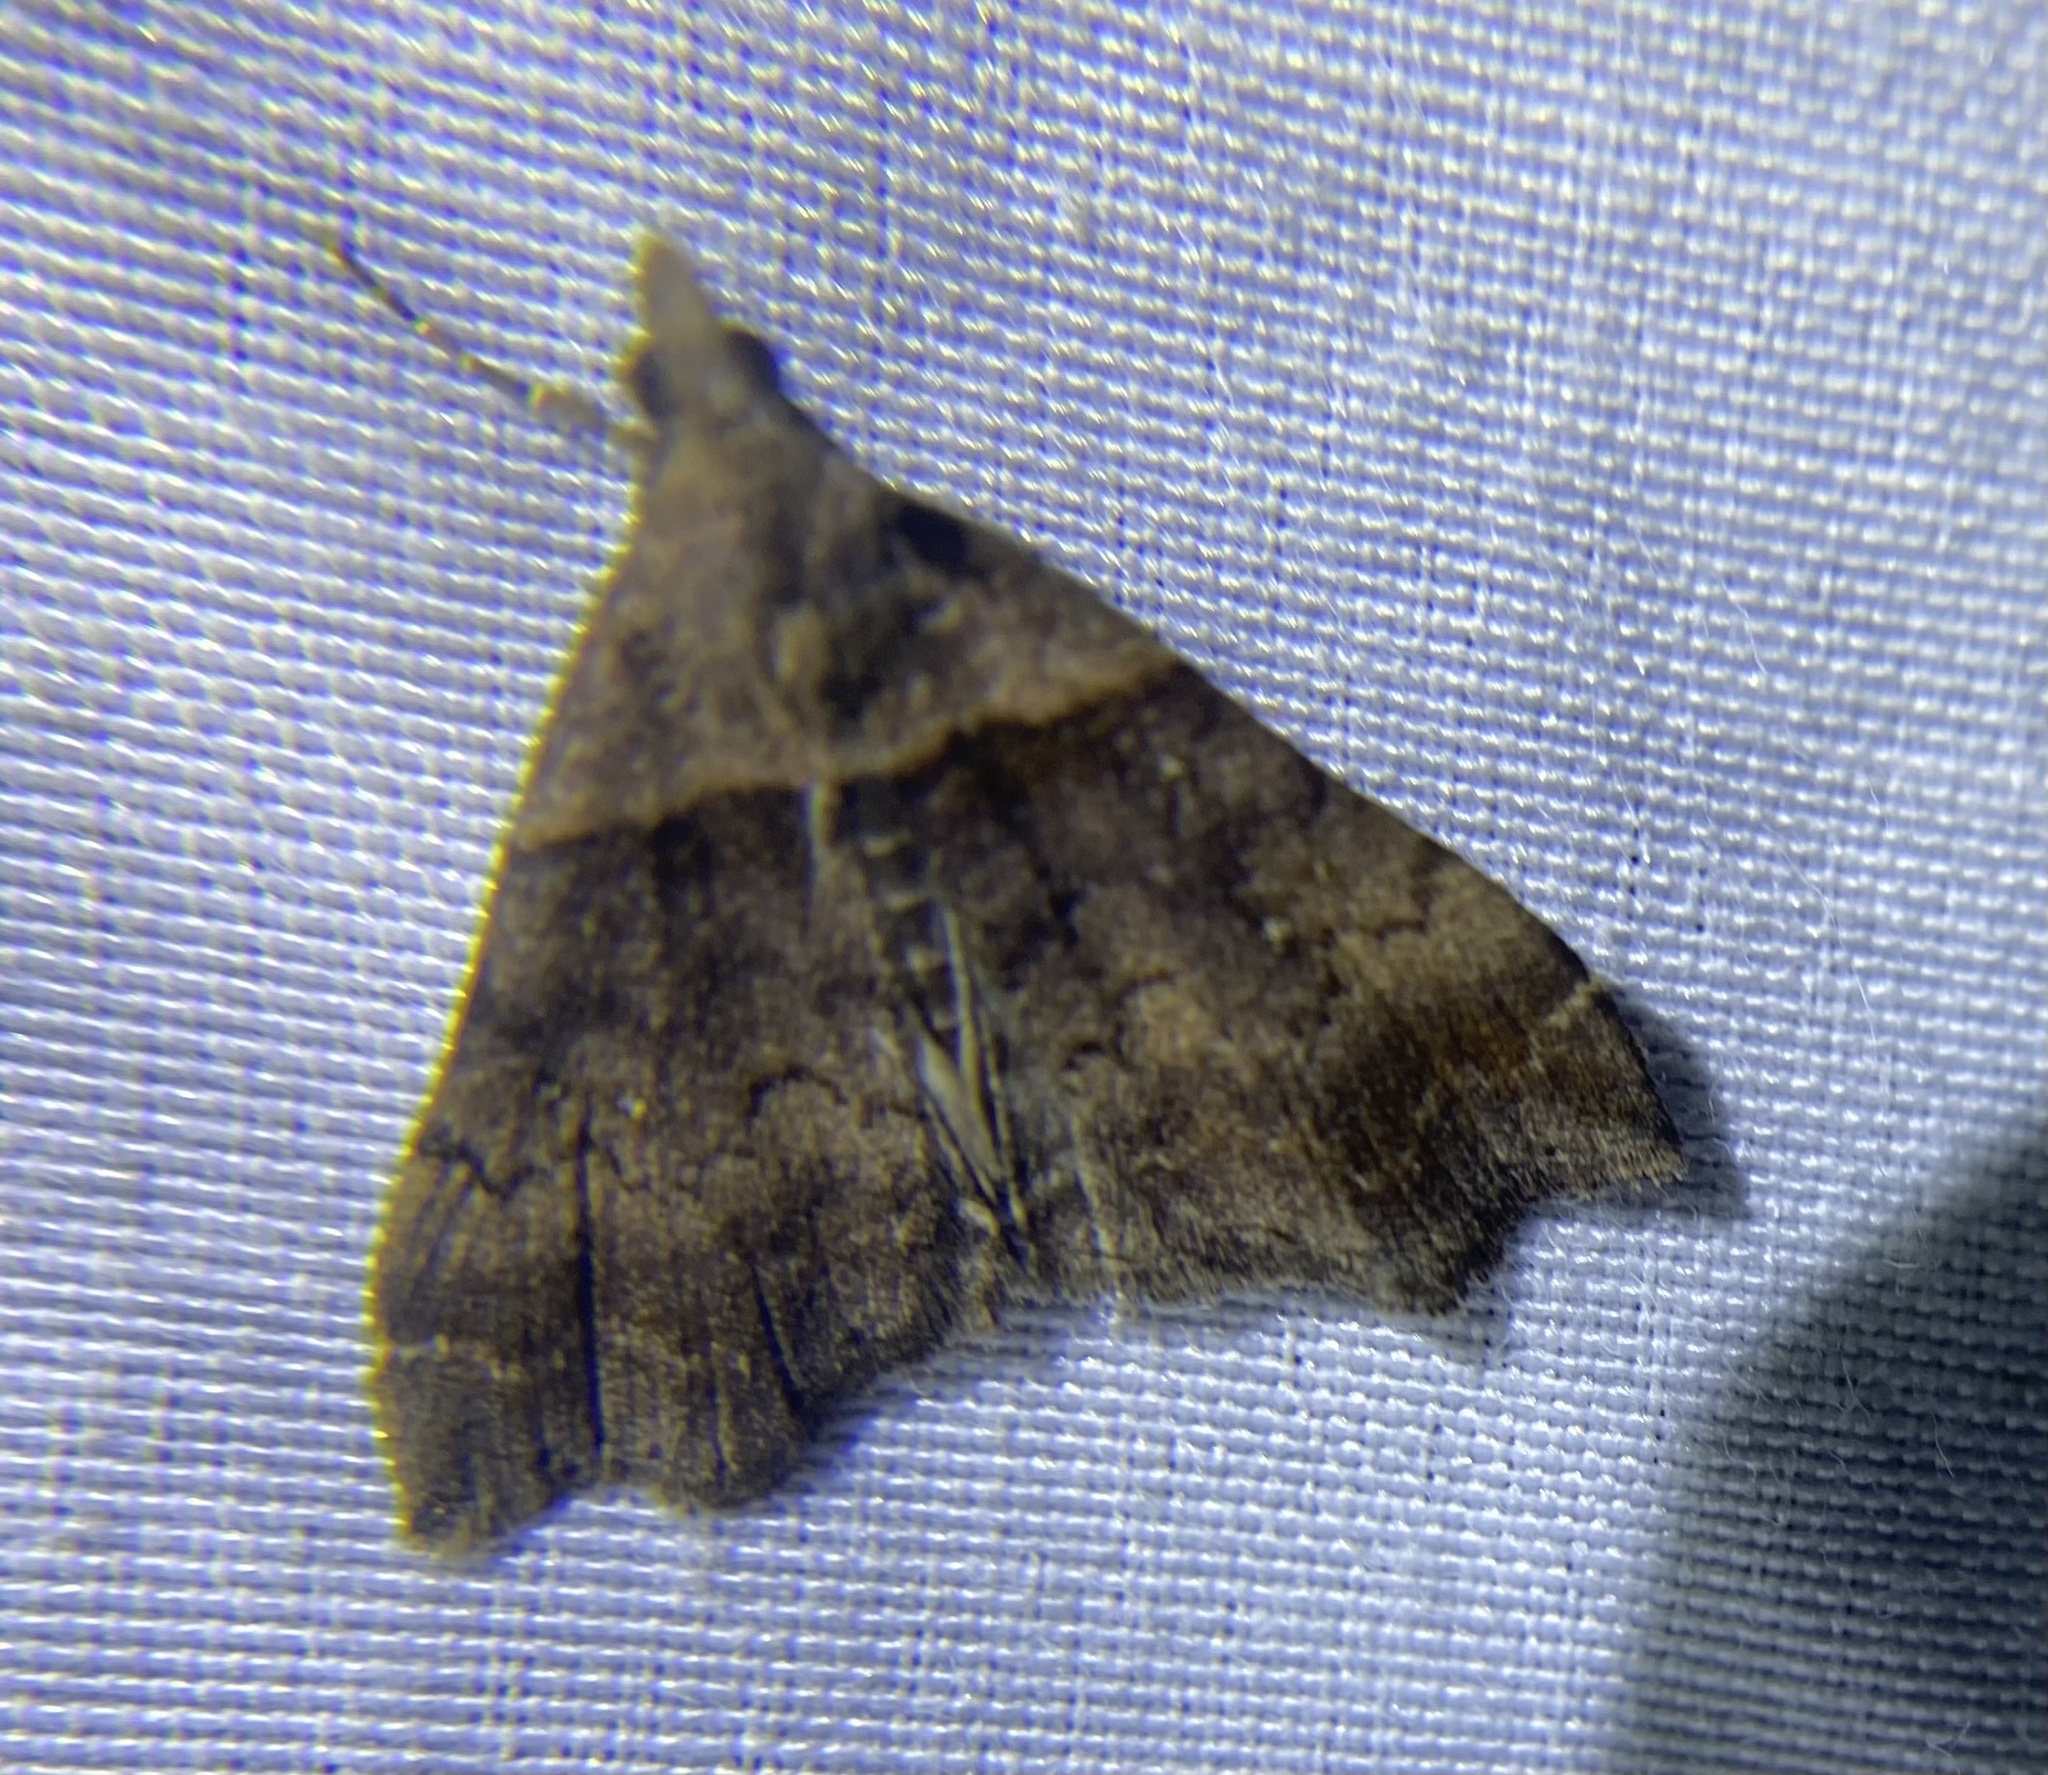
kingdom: Animalia
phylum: Arthropoda
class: Insecta
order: Lepidoptera
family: Erebidae
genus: Lascoria
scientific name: Lascoria ambigualis
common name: Ambiguous moth
